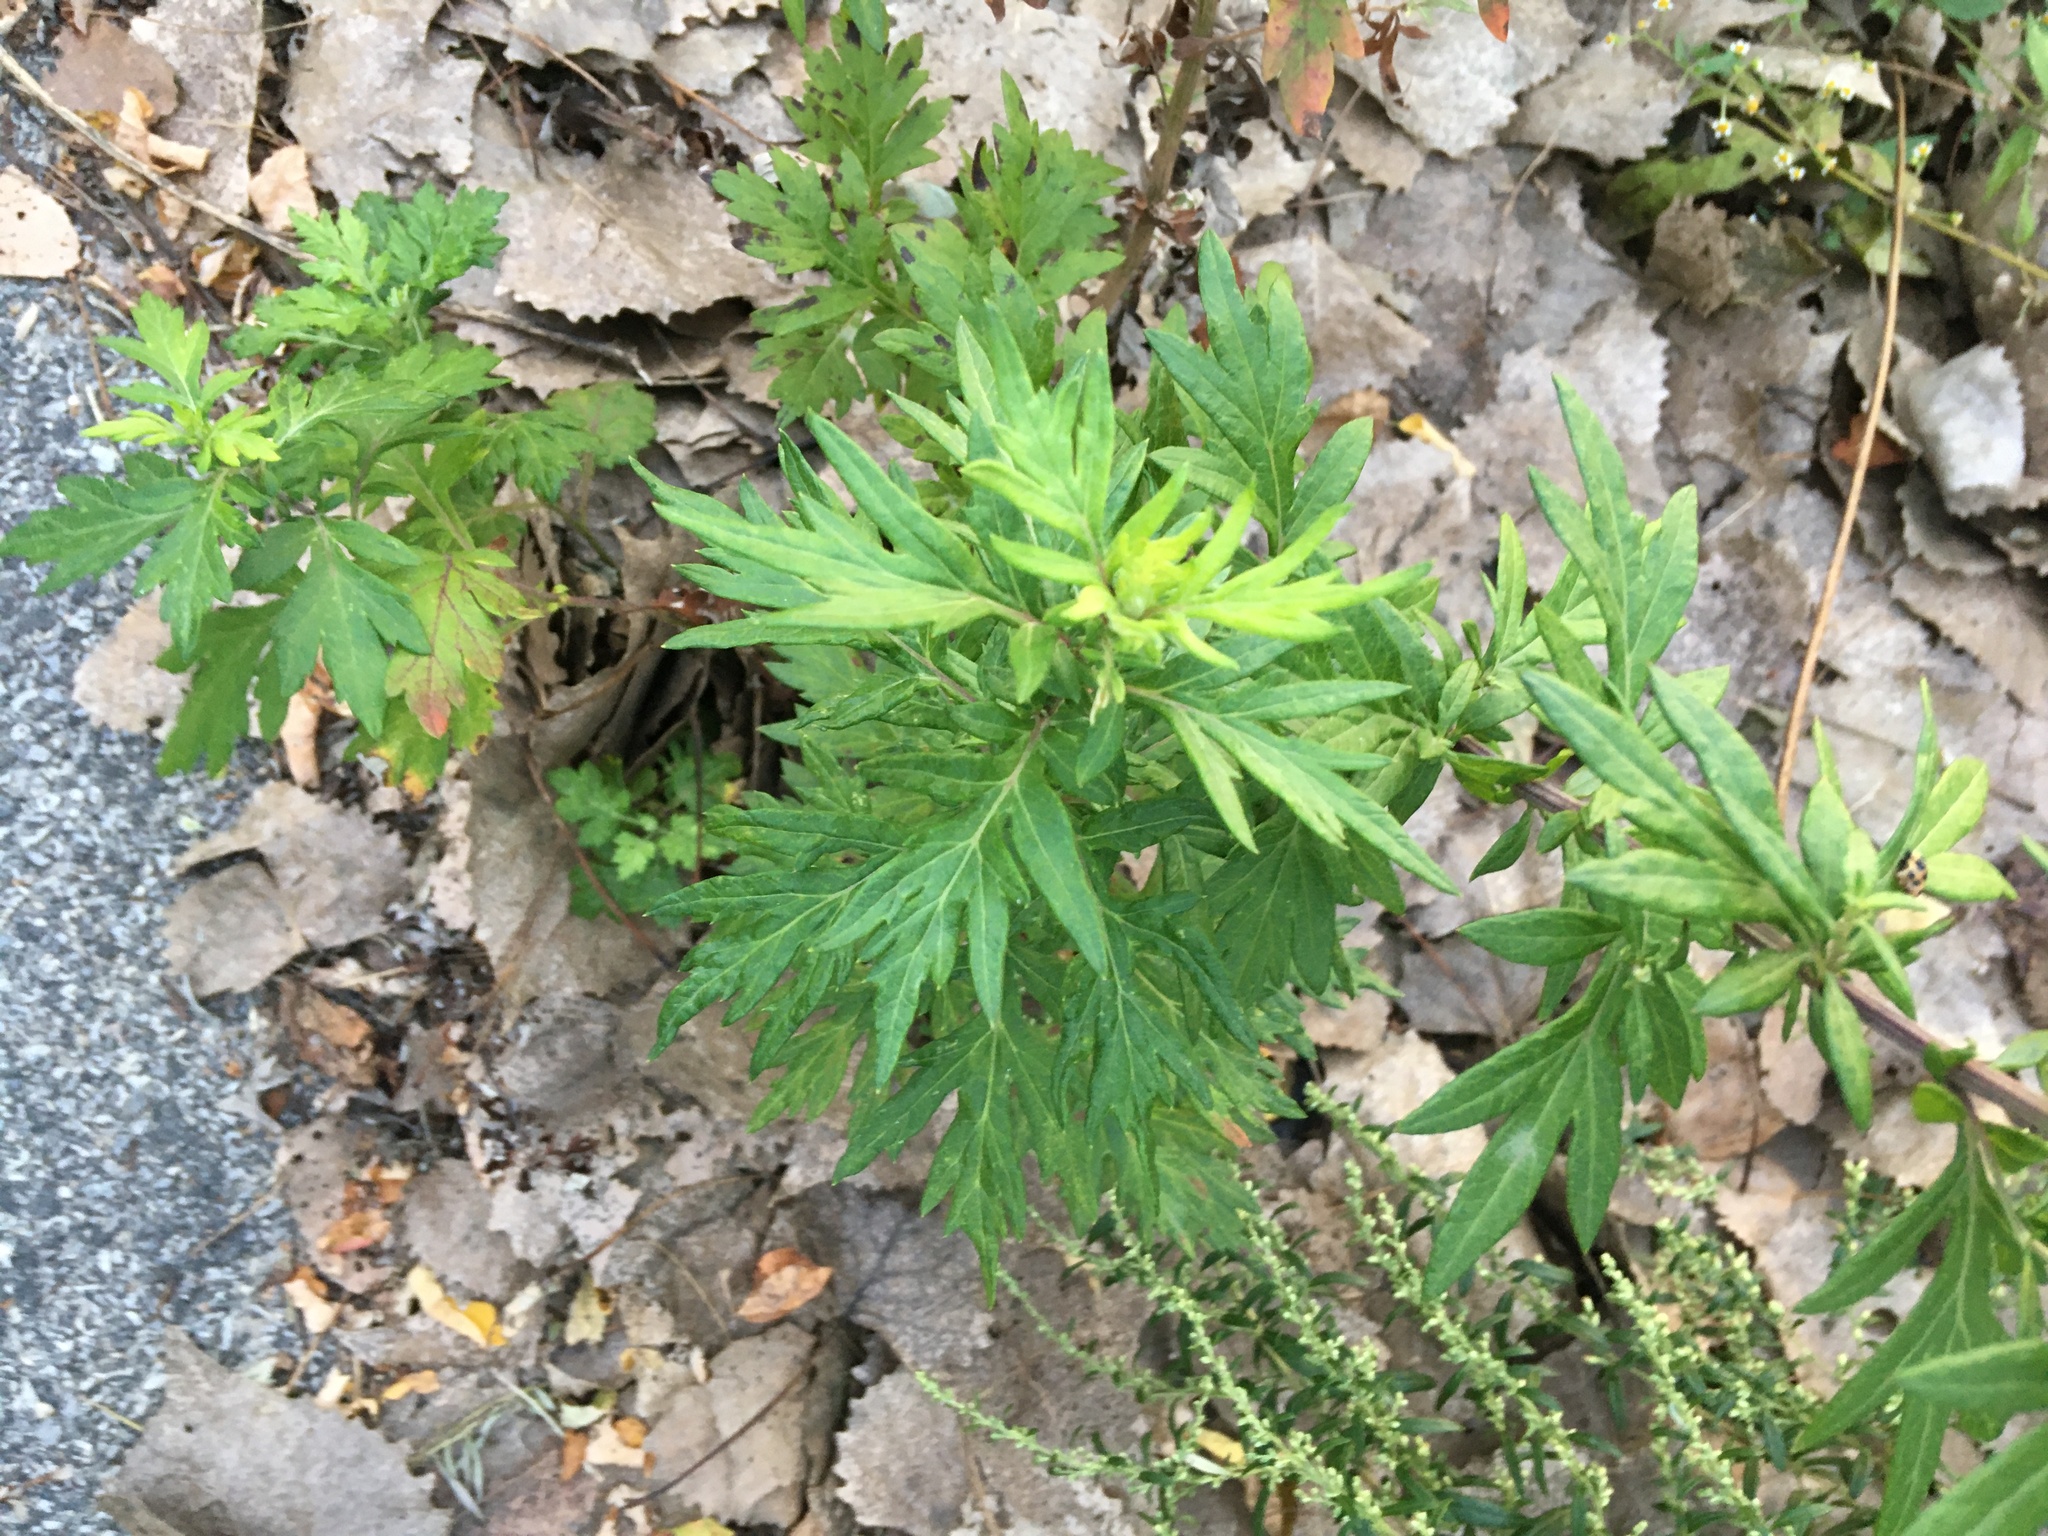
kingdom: Plantae
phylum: Tracheophyta
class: Magnoliopsida
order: Asterales
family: Asteraceae
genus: Artemisia
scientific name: Artemisia vulgaris
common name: Mugwort
